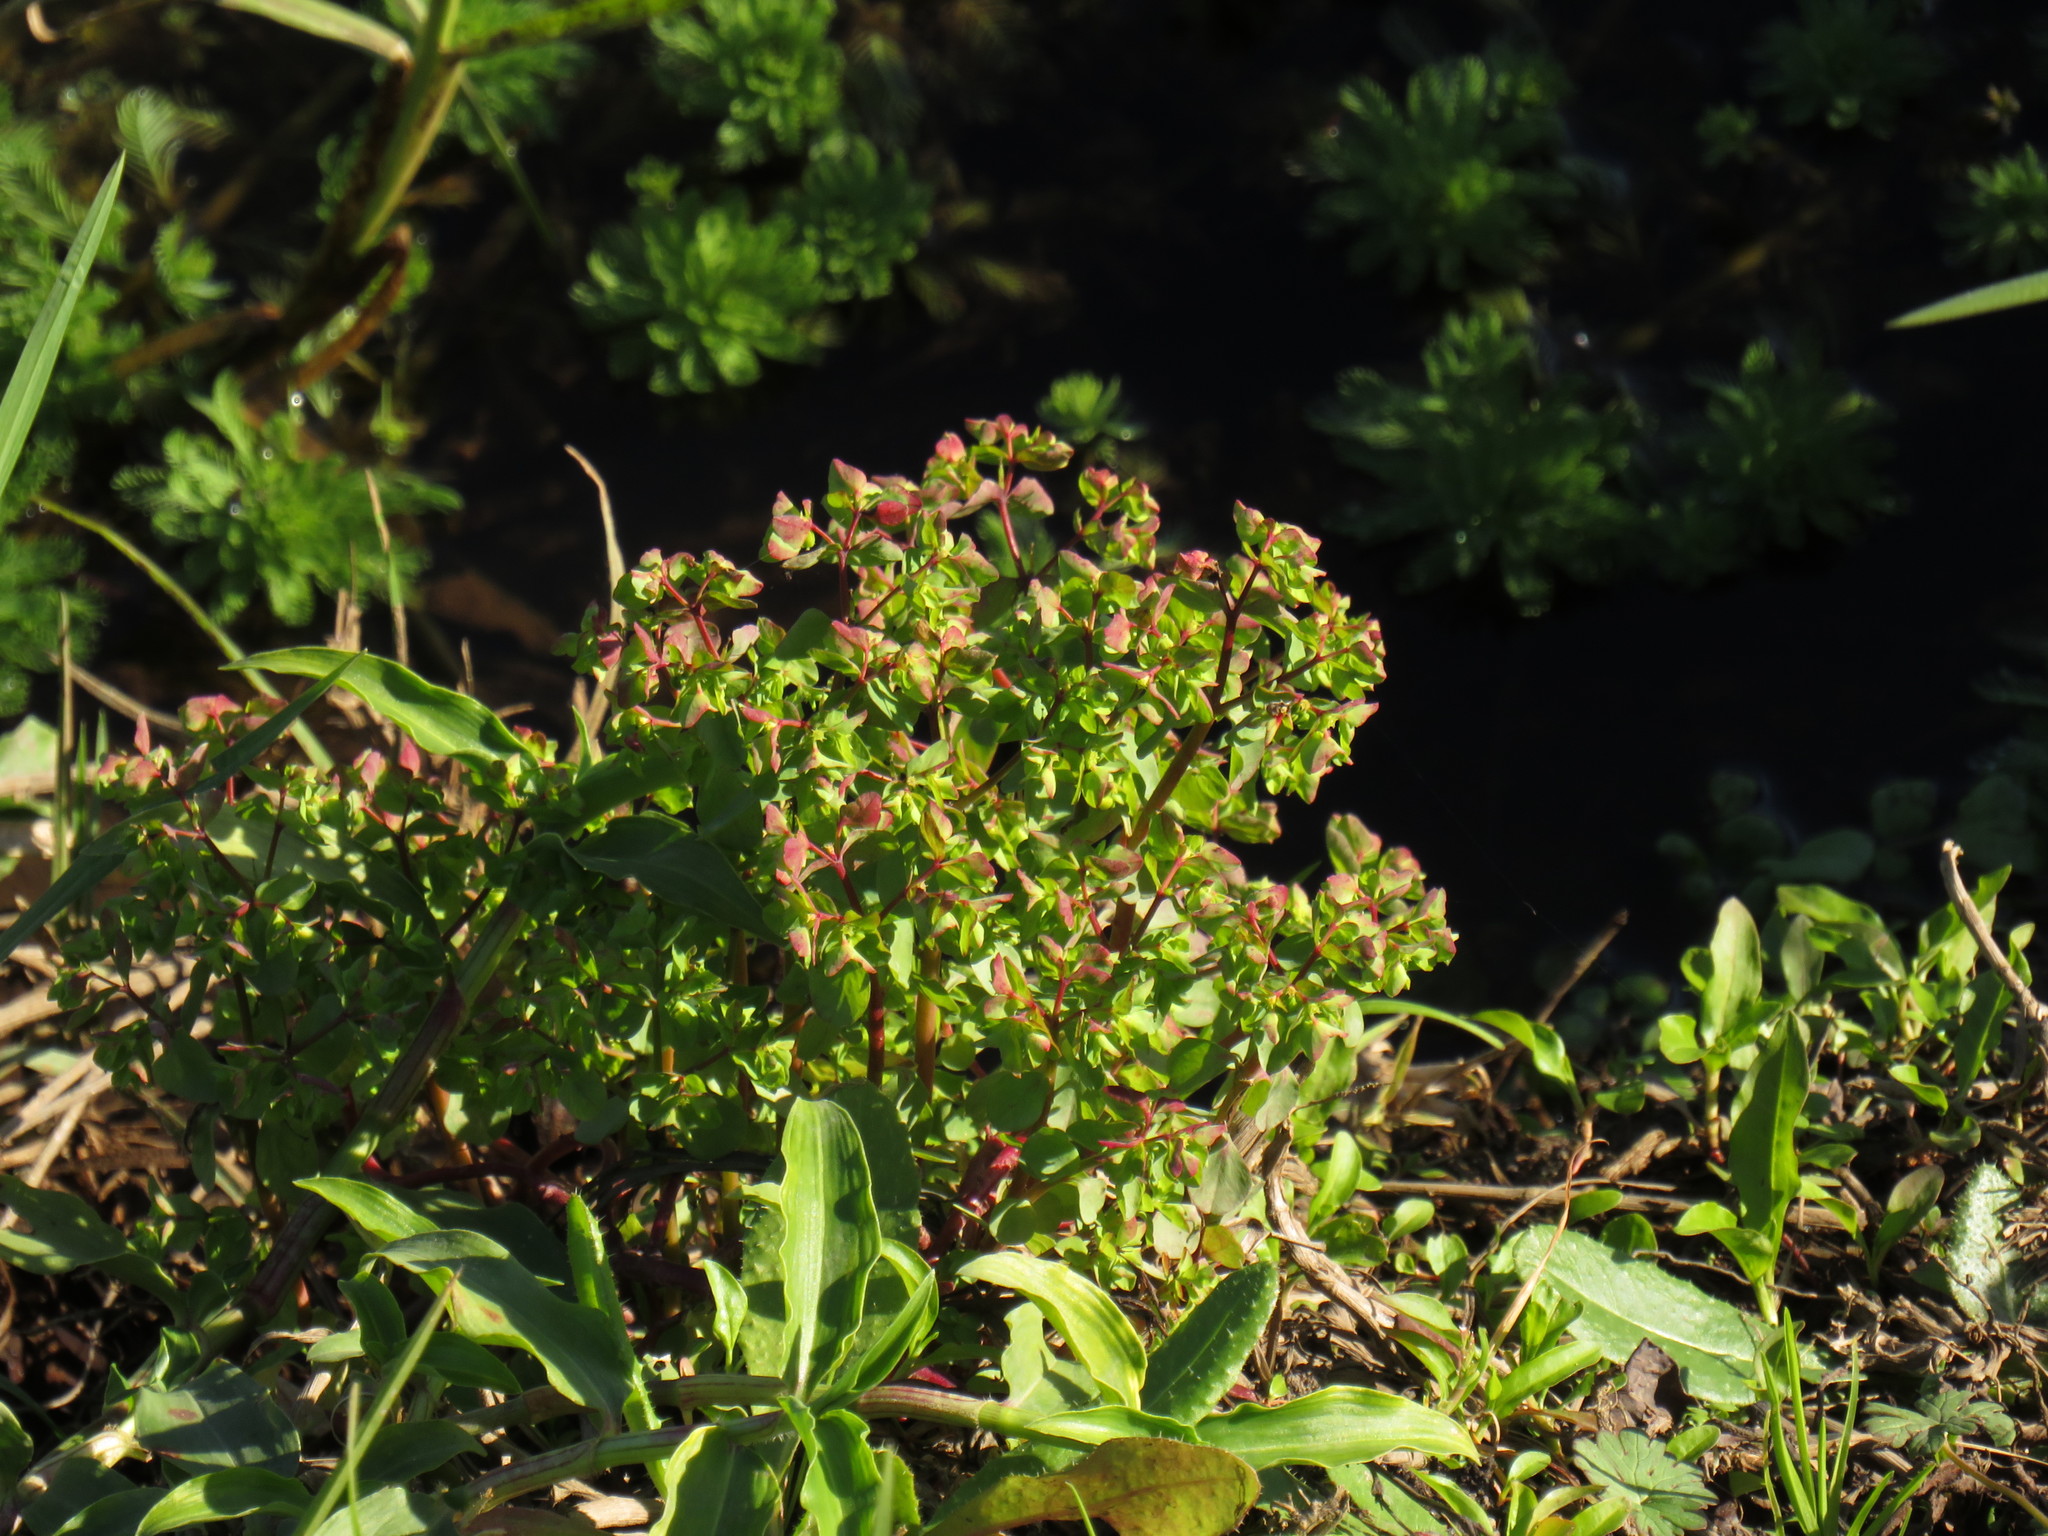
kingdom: Plantae
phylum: Tracheophyta
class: Magnoliopsida
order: Malpighiales
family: Euphorbiaceae
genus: Euphorbia
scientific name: Euphorbia peplus
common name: Petty spurge
